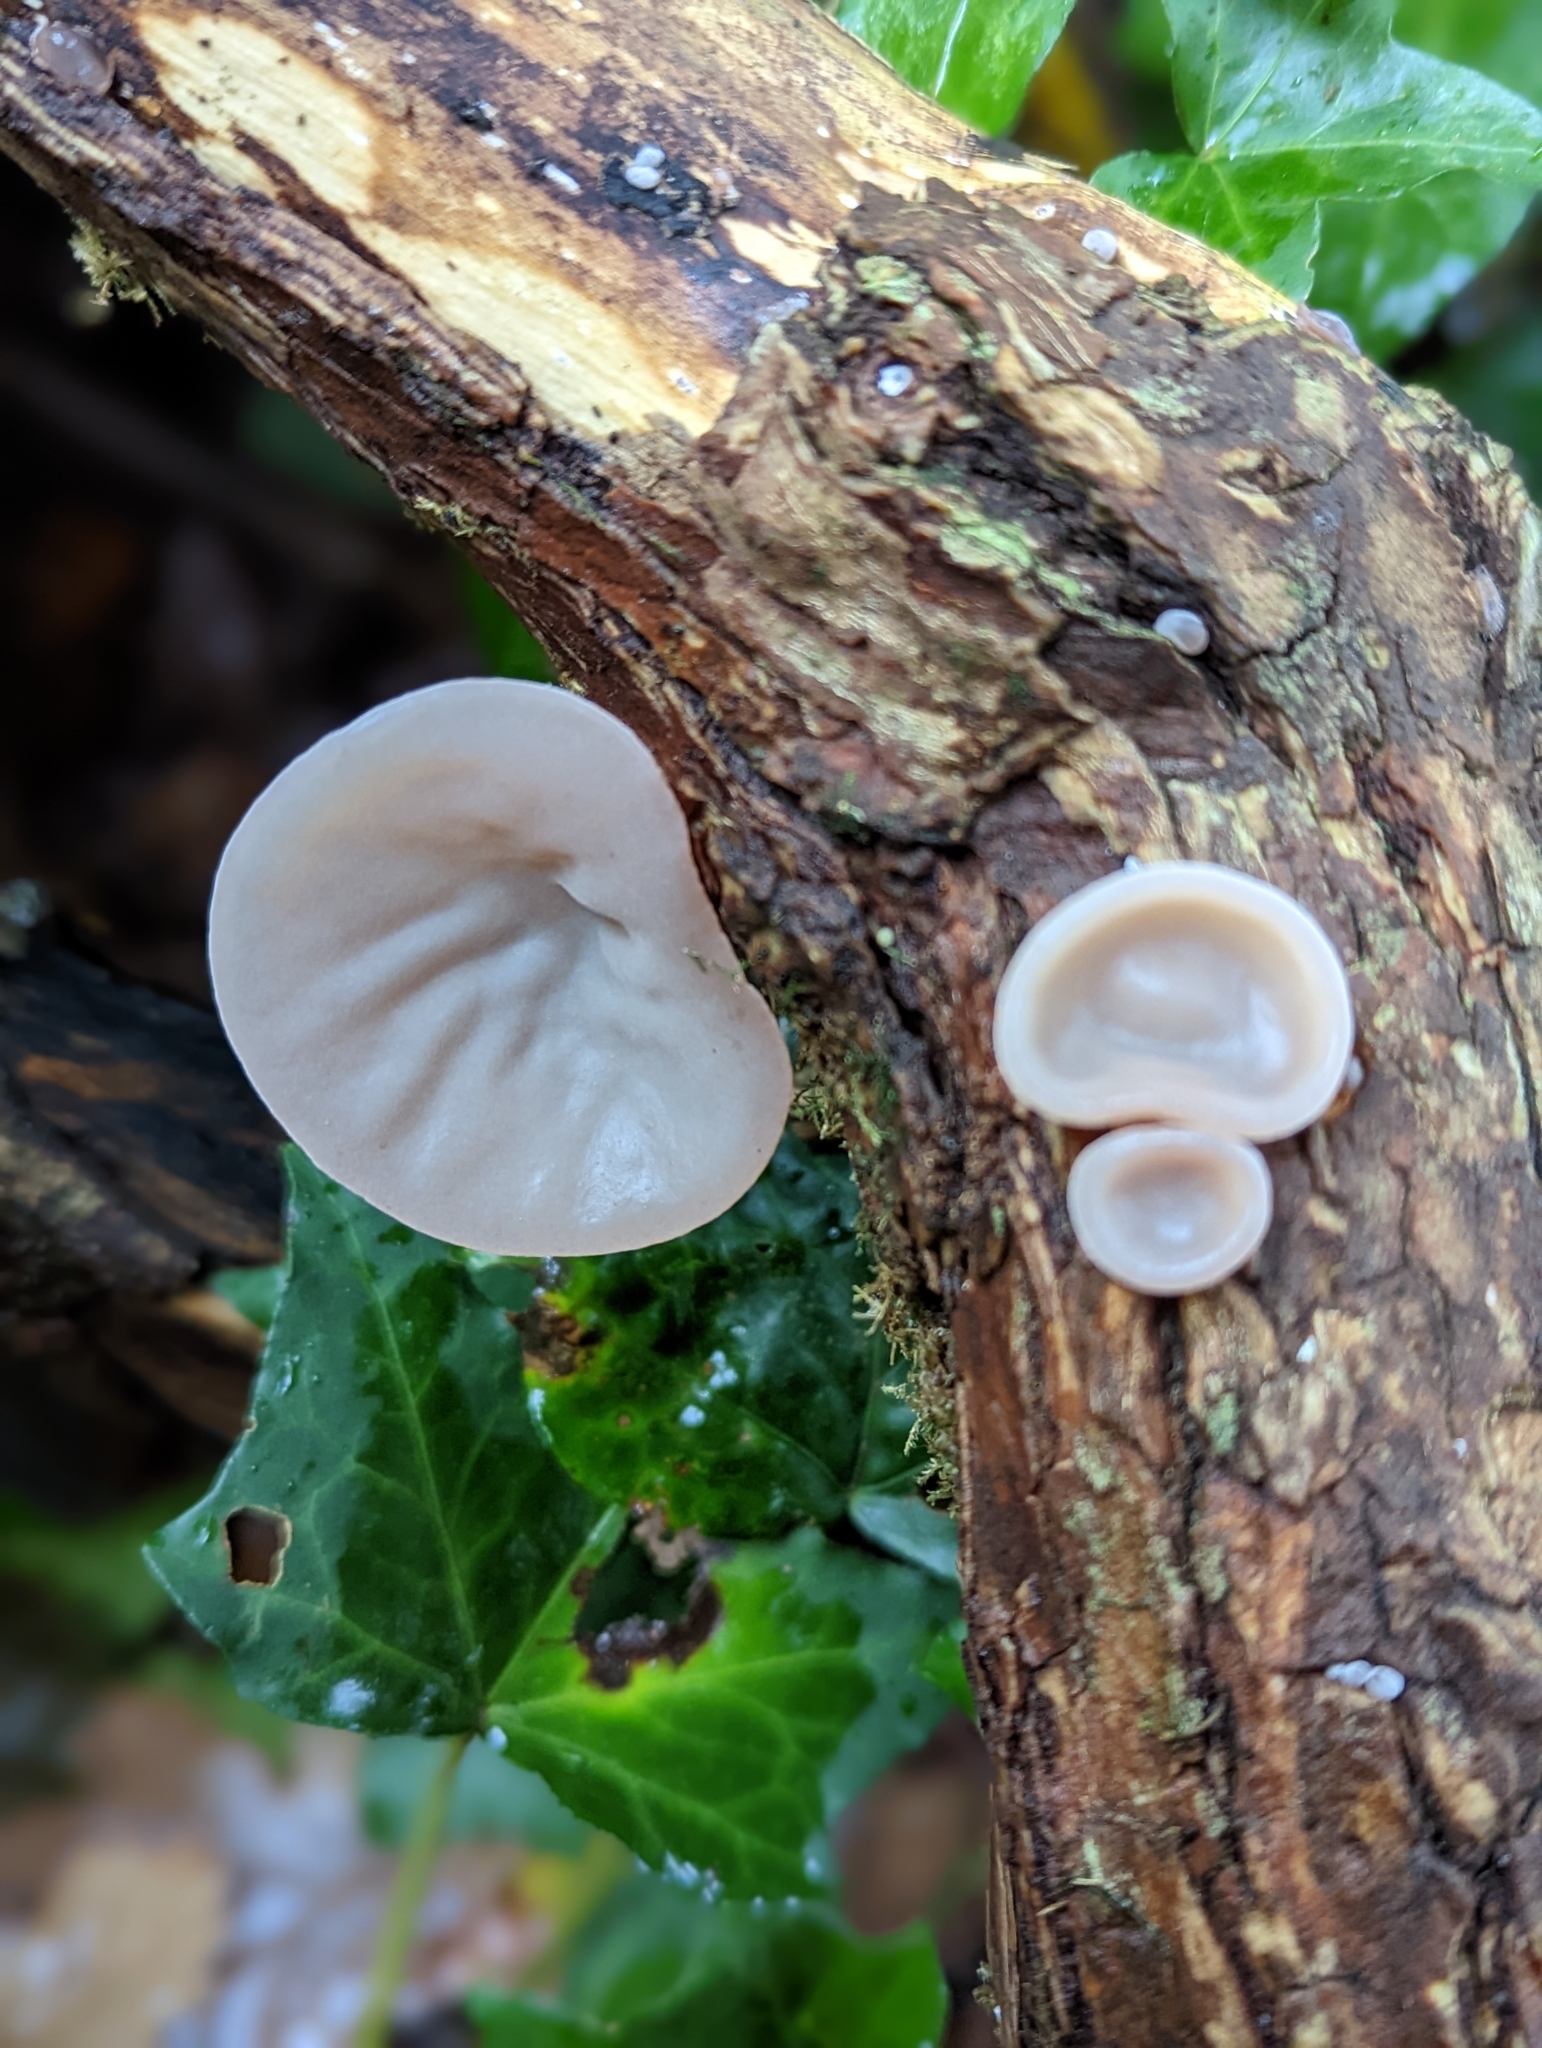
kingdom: Fungi
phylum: Basidiomycota
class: Agaricomycetes
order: Auriculariales
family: Auriculariaceae
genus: Auricularia
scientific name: Auricularia auricula-judae
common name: Jelly ear
